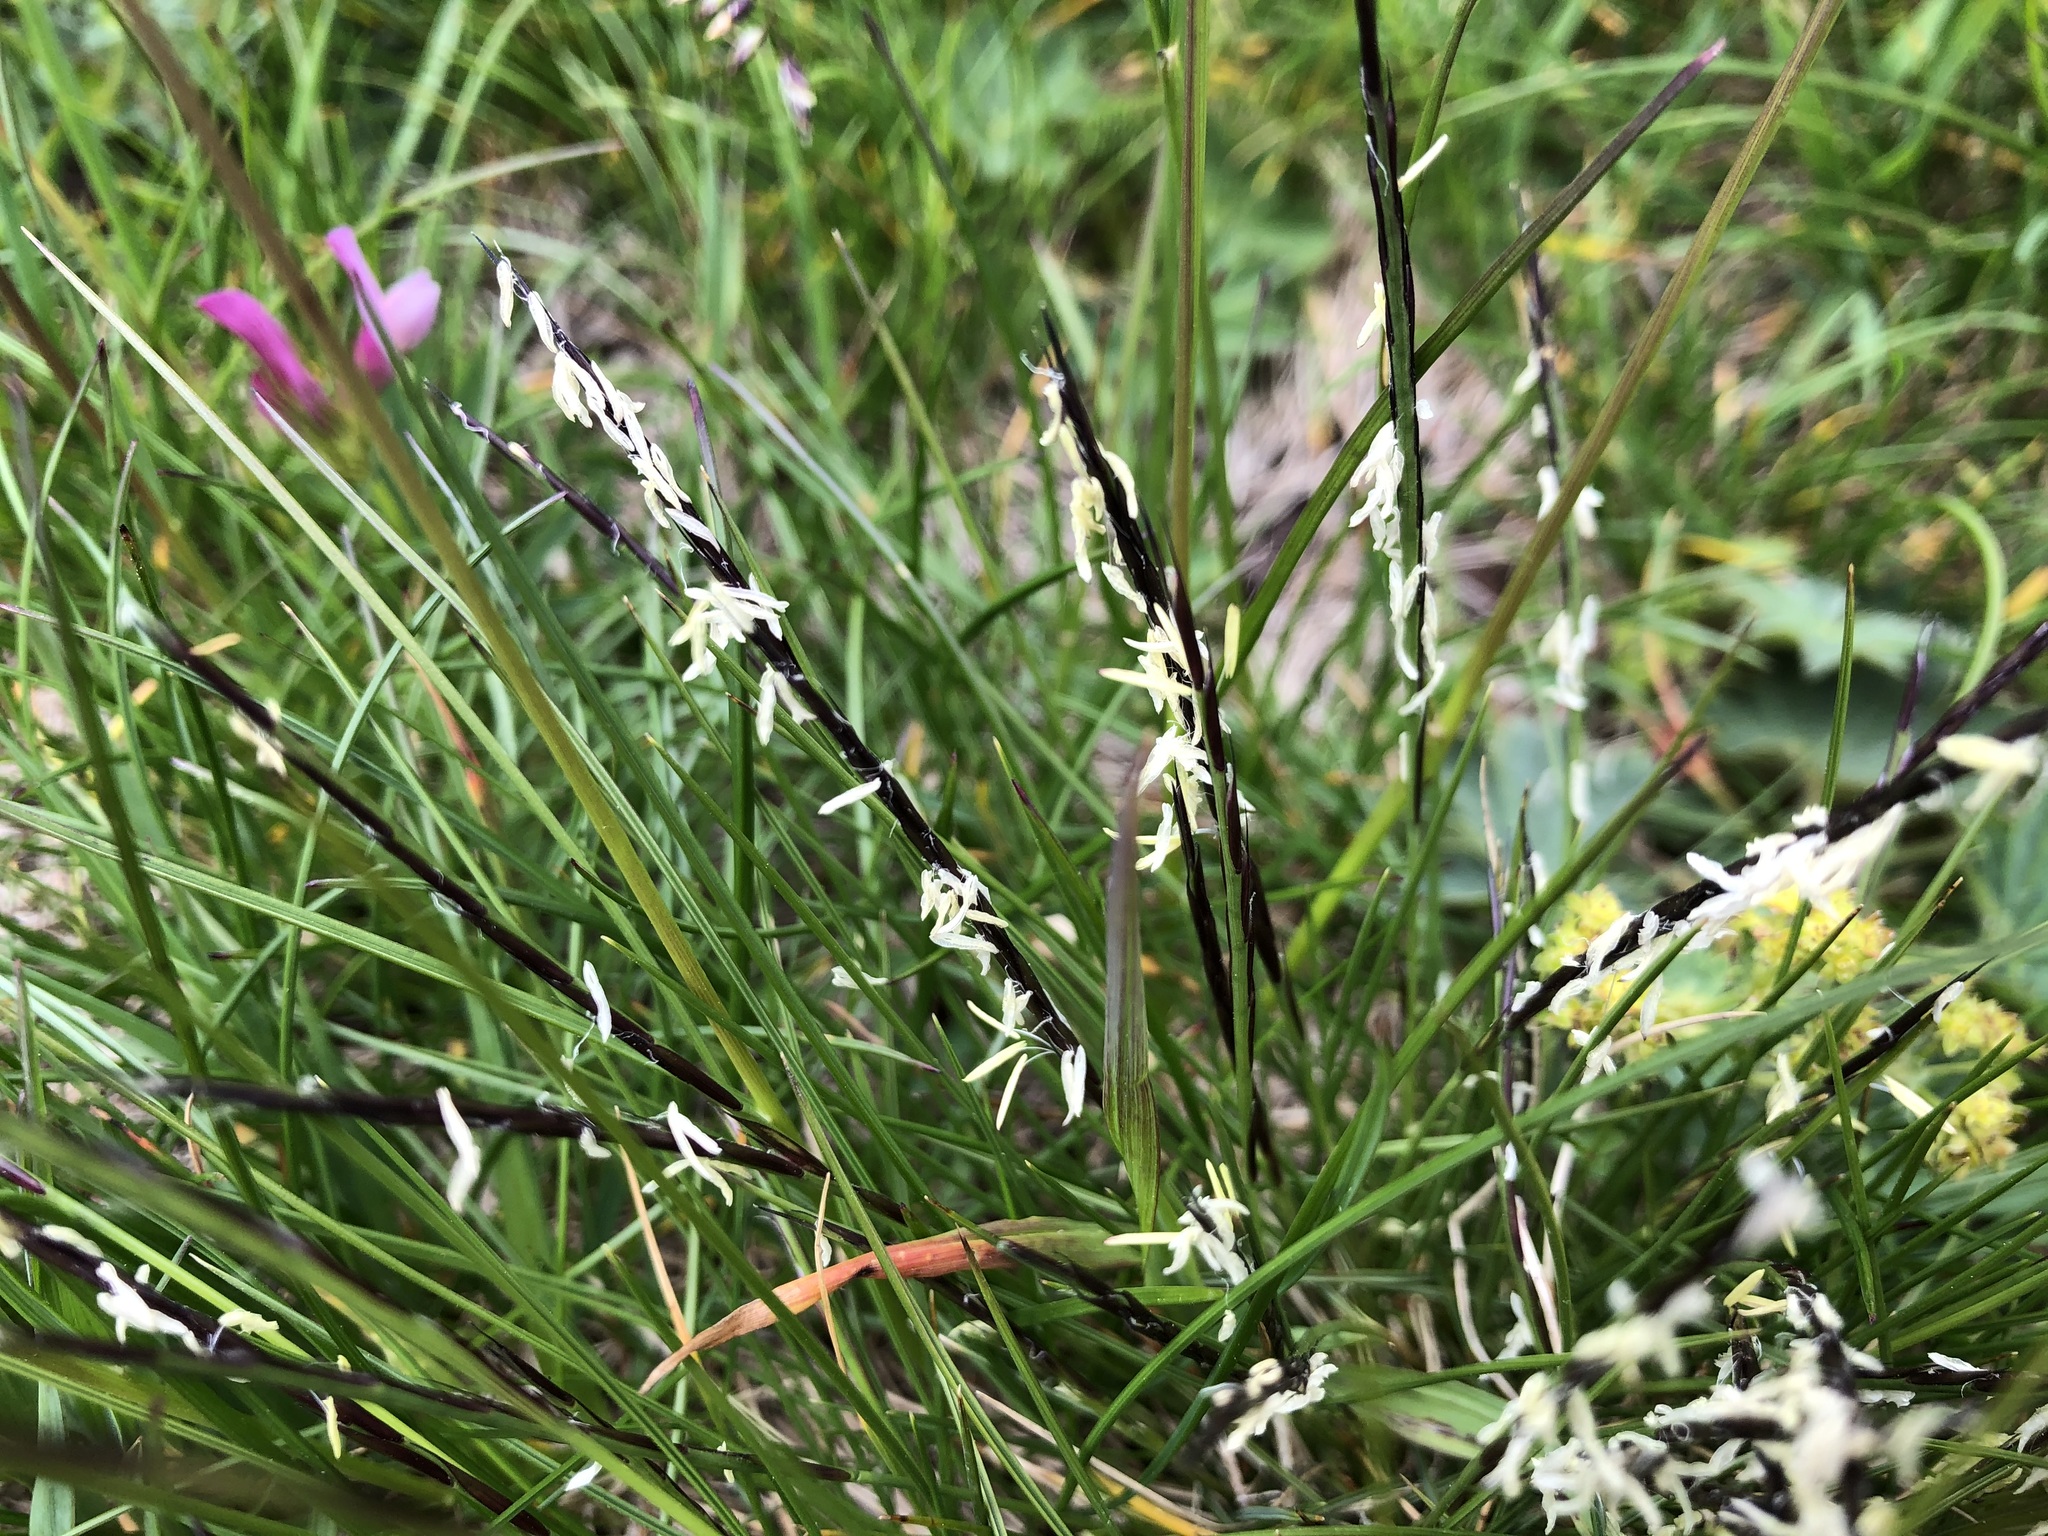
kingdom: Plantae
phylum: Tracheophyta
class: Liliopsida
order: Poales
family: Poaceae
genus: Nardus
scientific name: Nardus stricta
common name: Mat-grass
